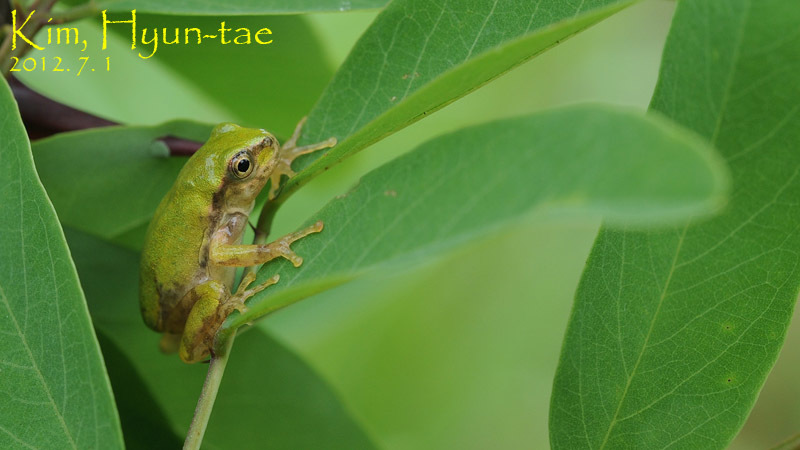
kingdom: Animalia
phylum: Chordata
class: Amphibia
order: Anura
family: Hylidae
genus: Dryophytes
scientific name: Dryophytes immaculatus
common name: North china treefrog
